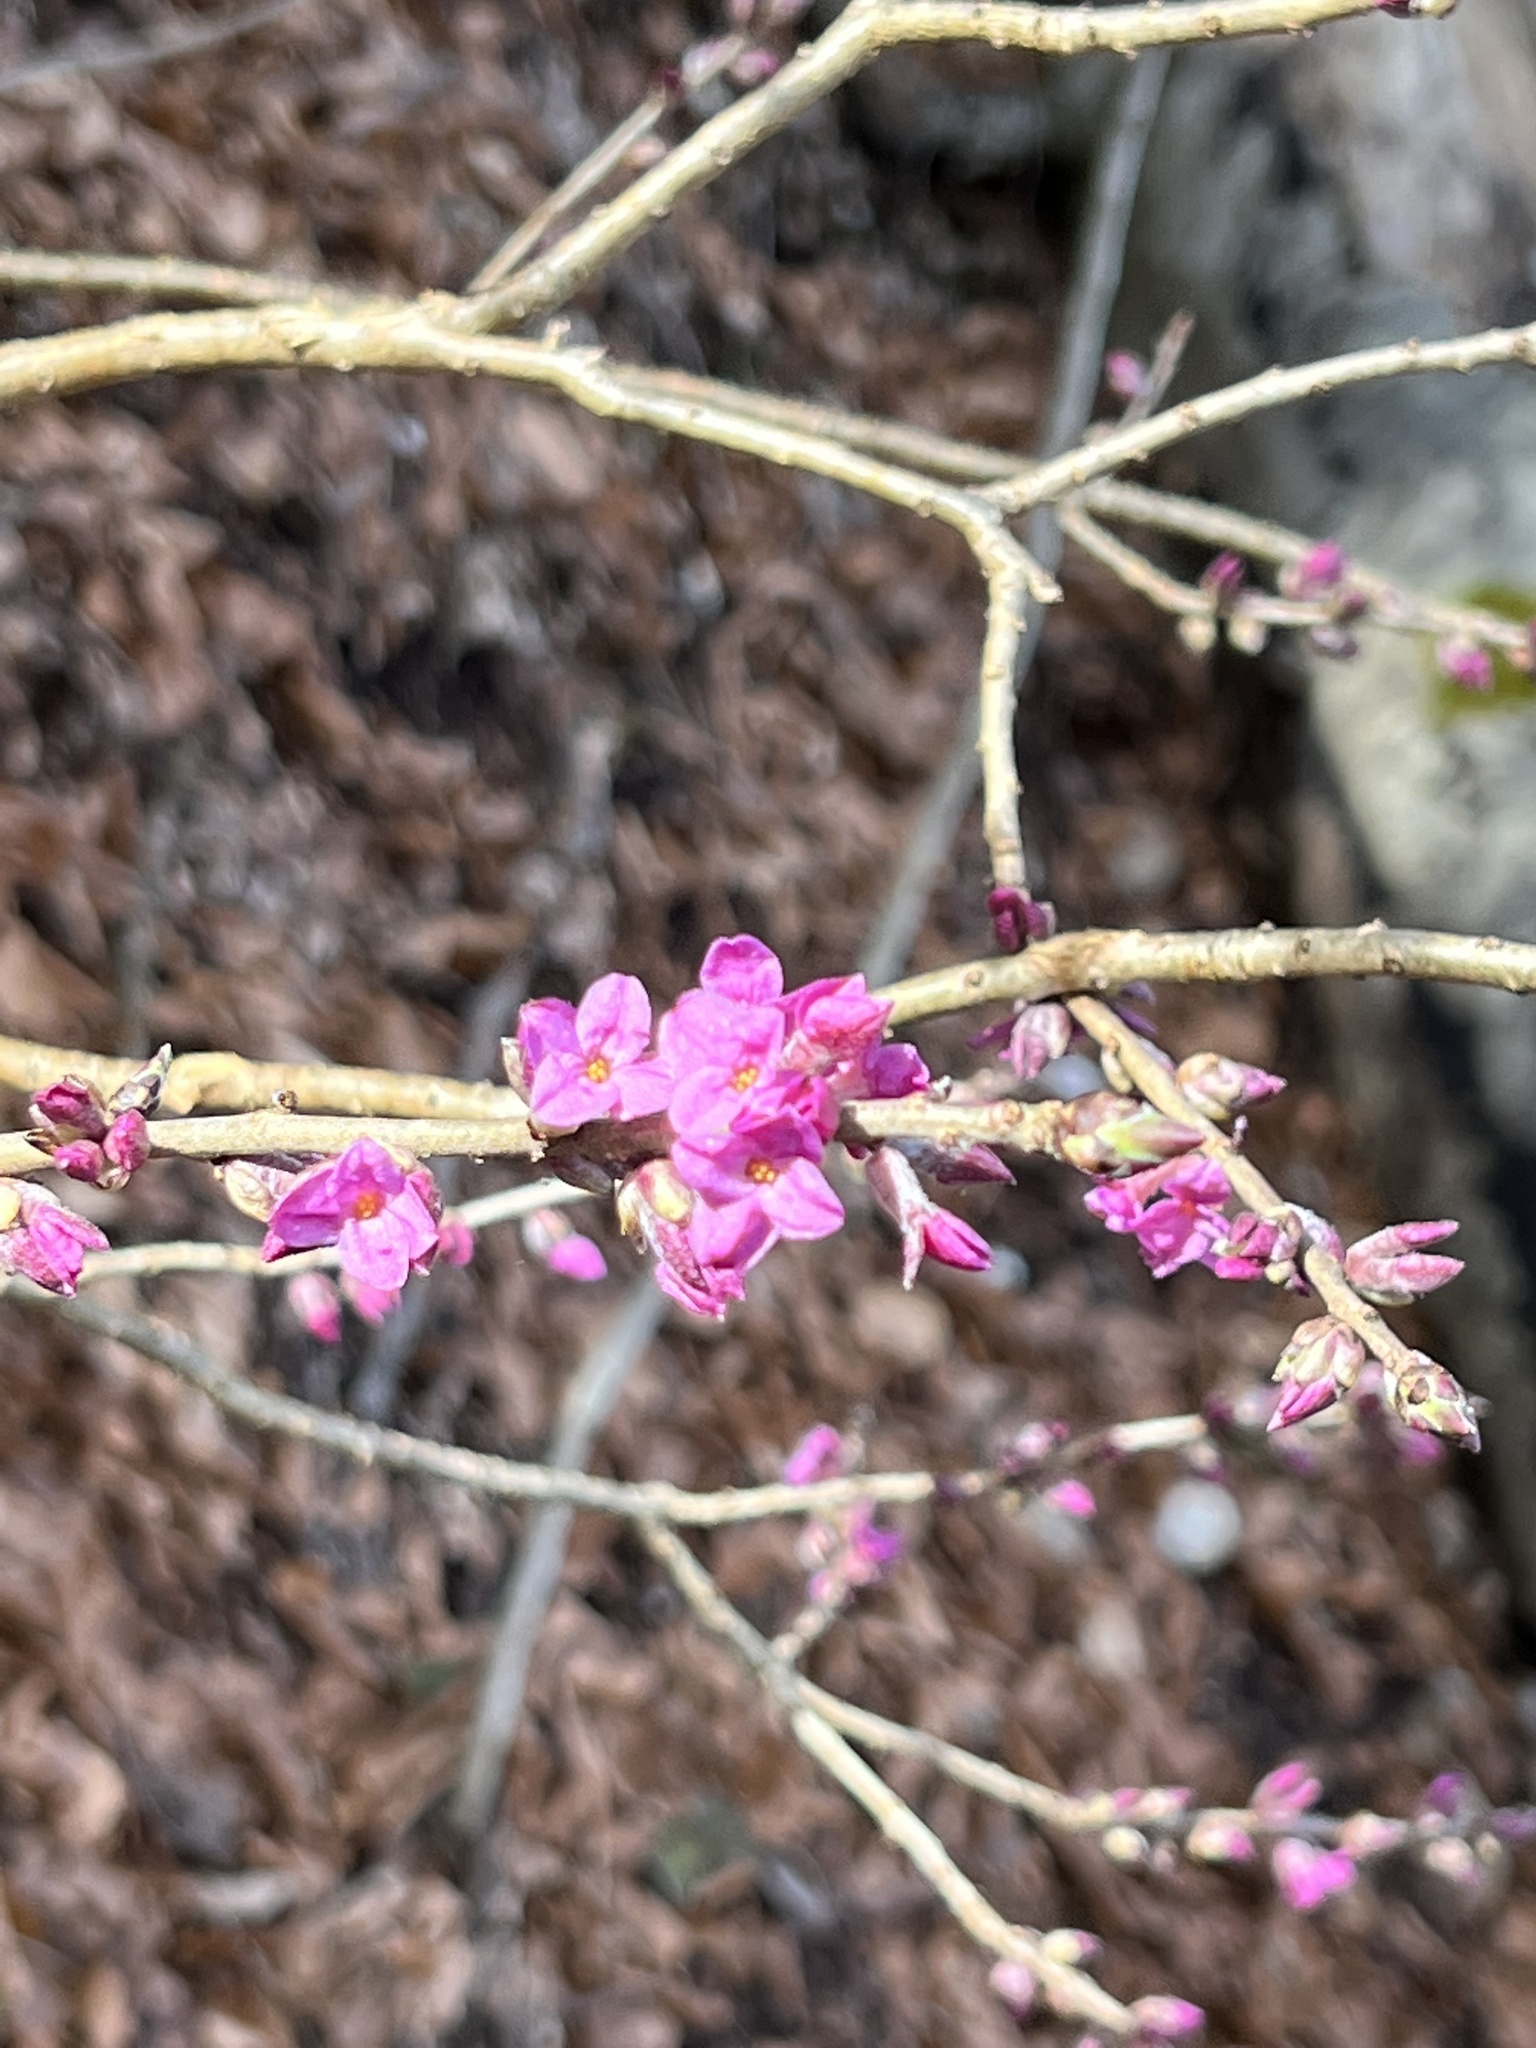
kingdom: Plantae
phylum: Tracheophyta
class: Magnoliopsida
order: Malvales
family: Thymelaeaceae
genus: Daphne
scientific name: Daphne mezereum
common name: Mezereon
